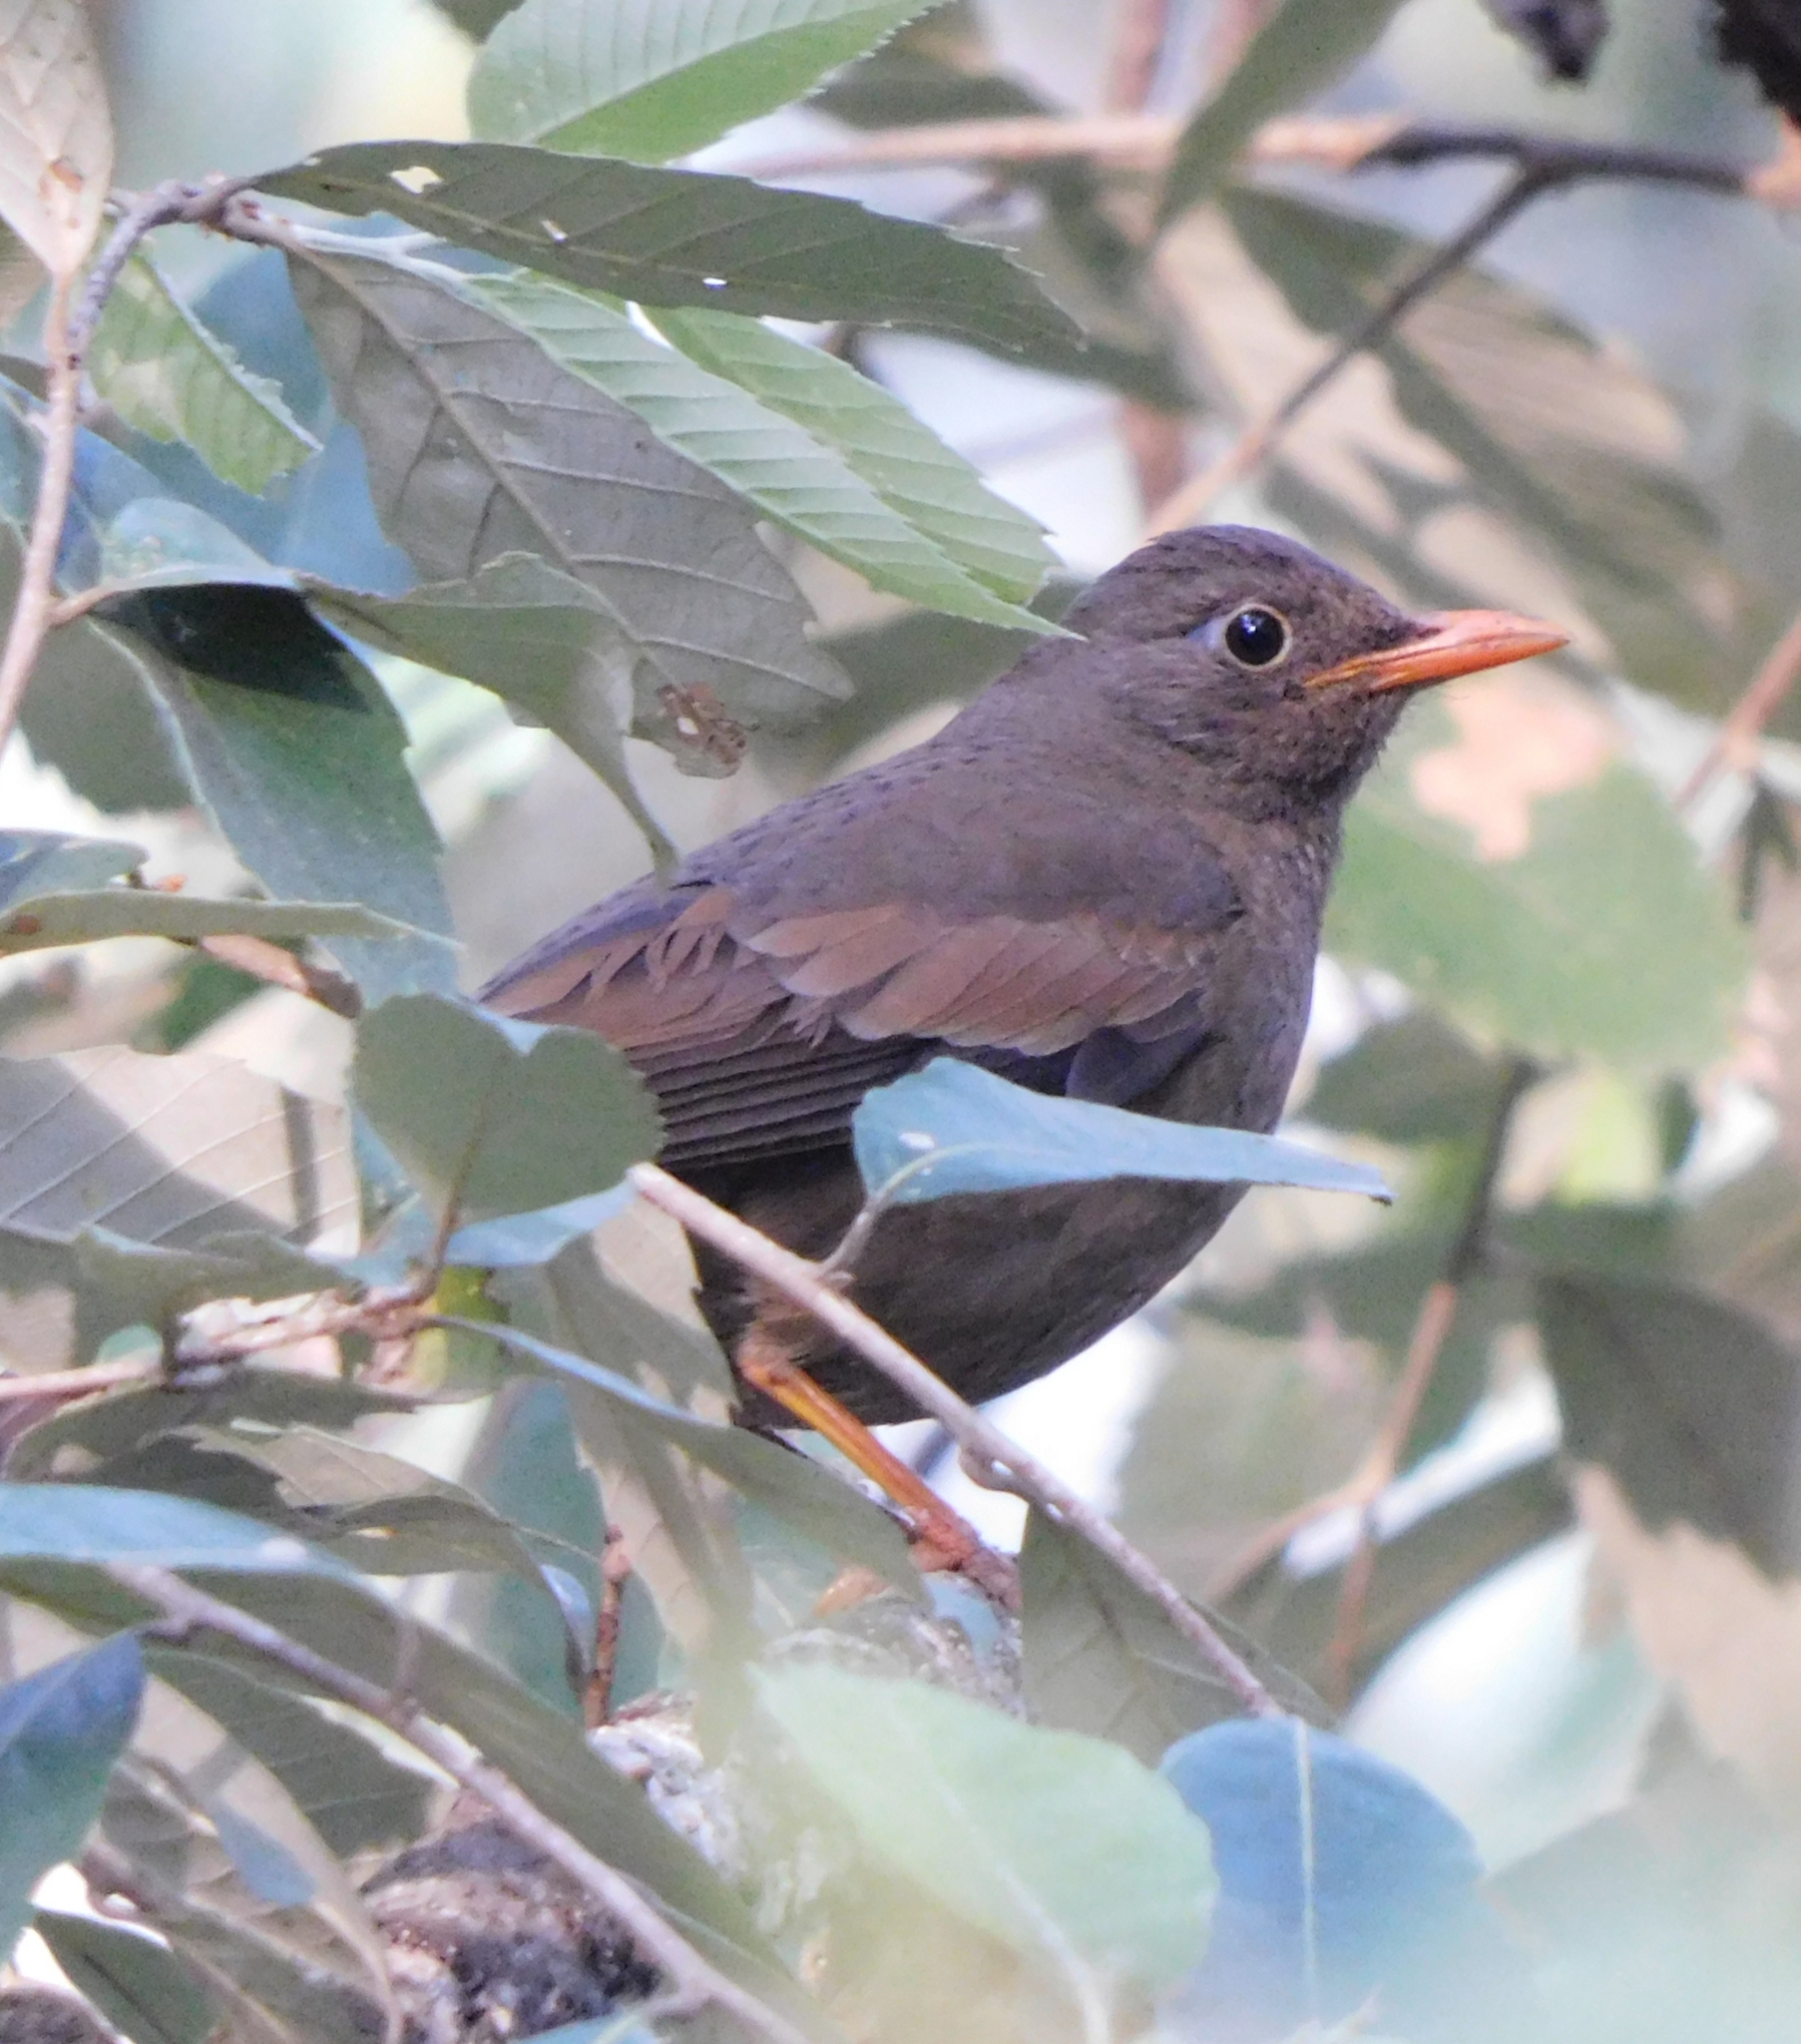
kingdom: Animalia
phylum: Chordata
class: Aves
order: Passeriformes
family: Turdidae
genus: Turdus
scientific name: Turdus boulboul
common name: Grey-winged blackbird
